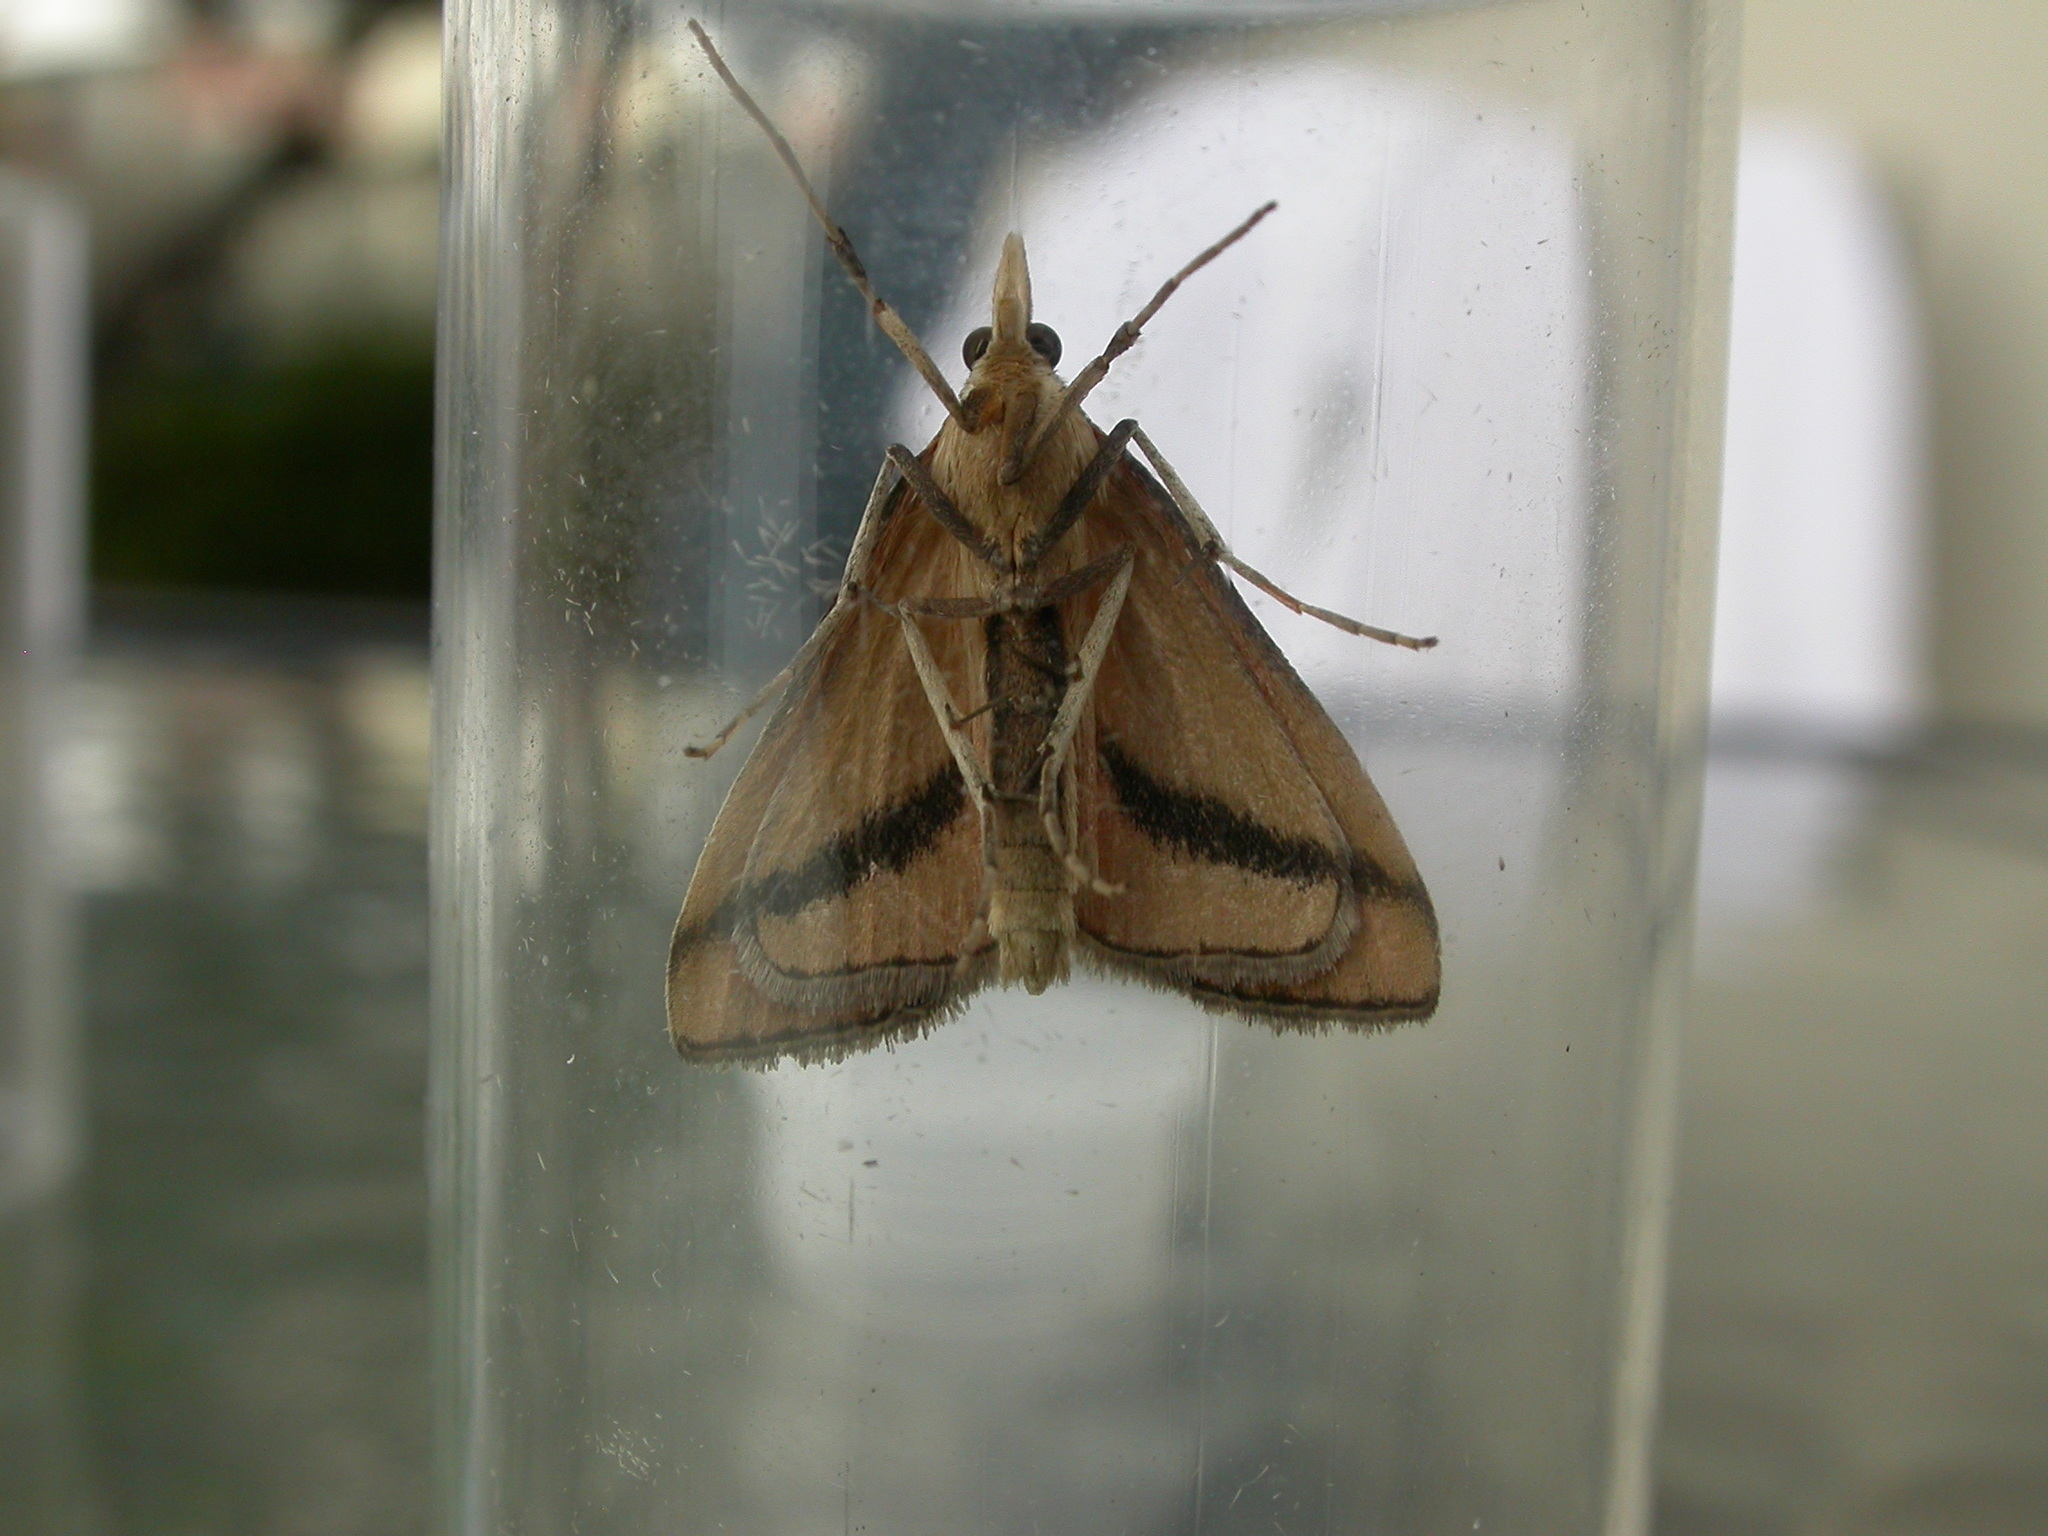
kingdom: Animalia
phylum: Arthropoda
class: Insecta
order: Lepidoptera
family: Crambidae
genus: Osiriaca
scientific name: Osiriaca ptousalis
